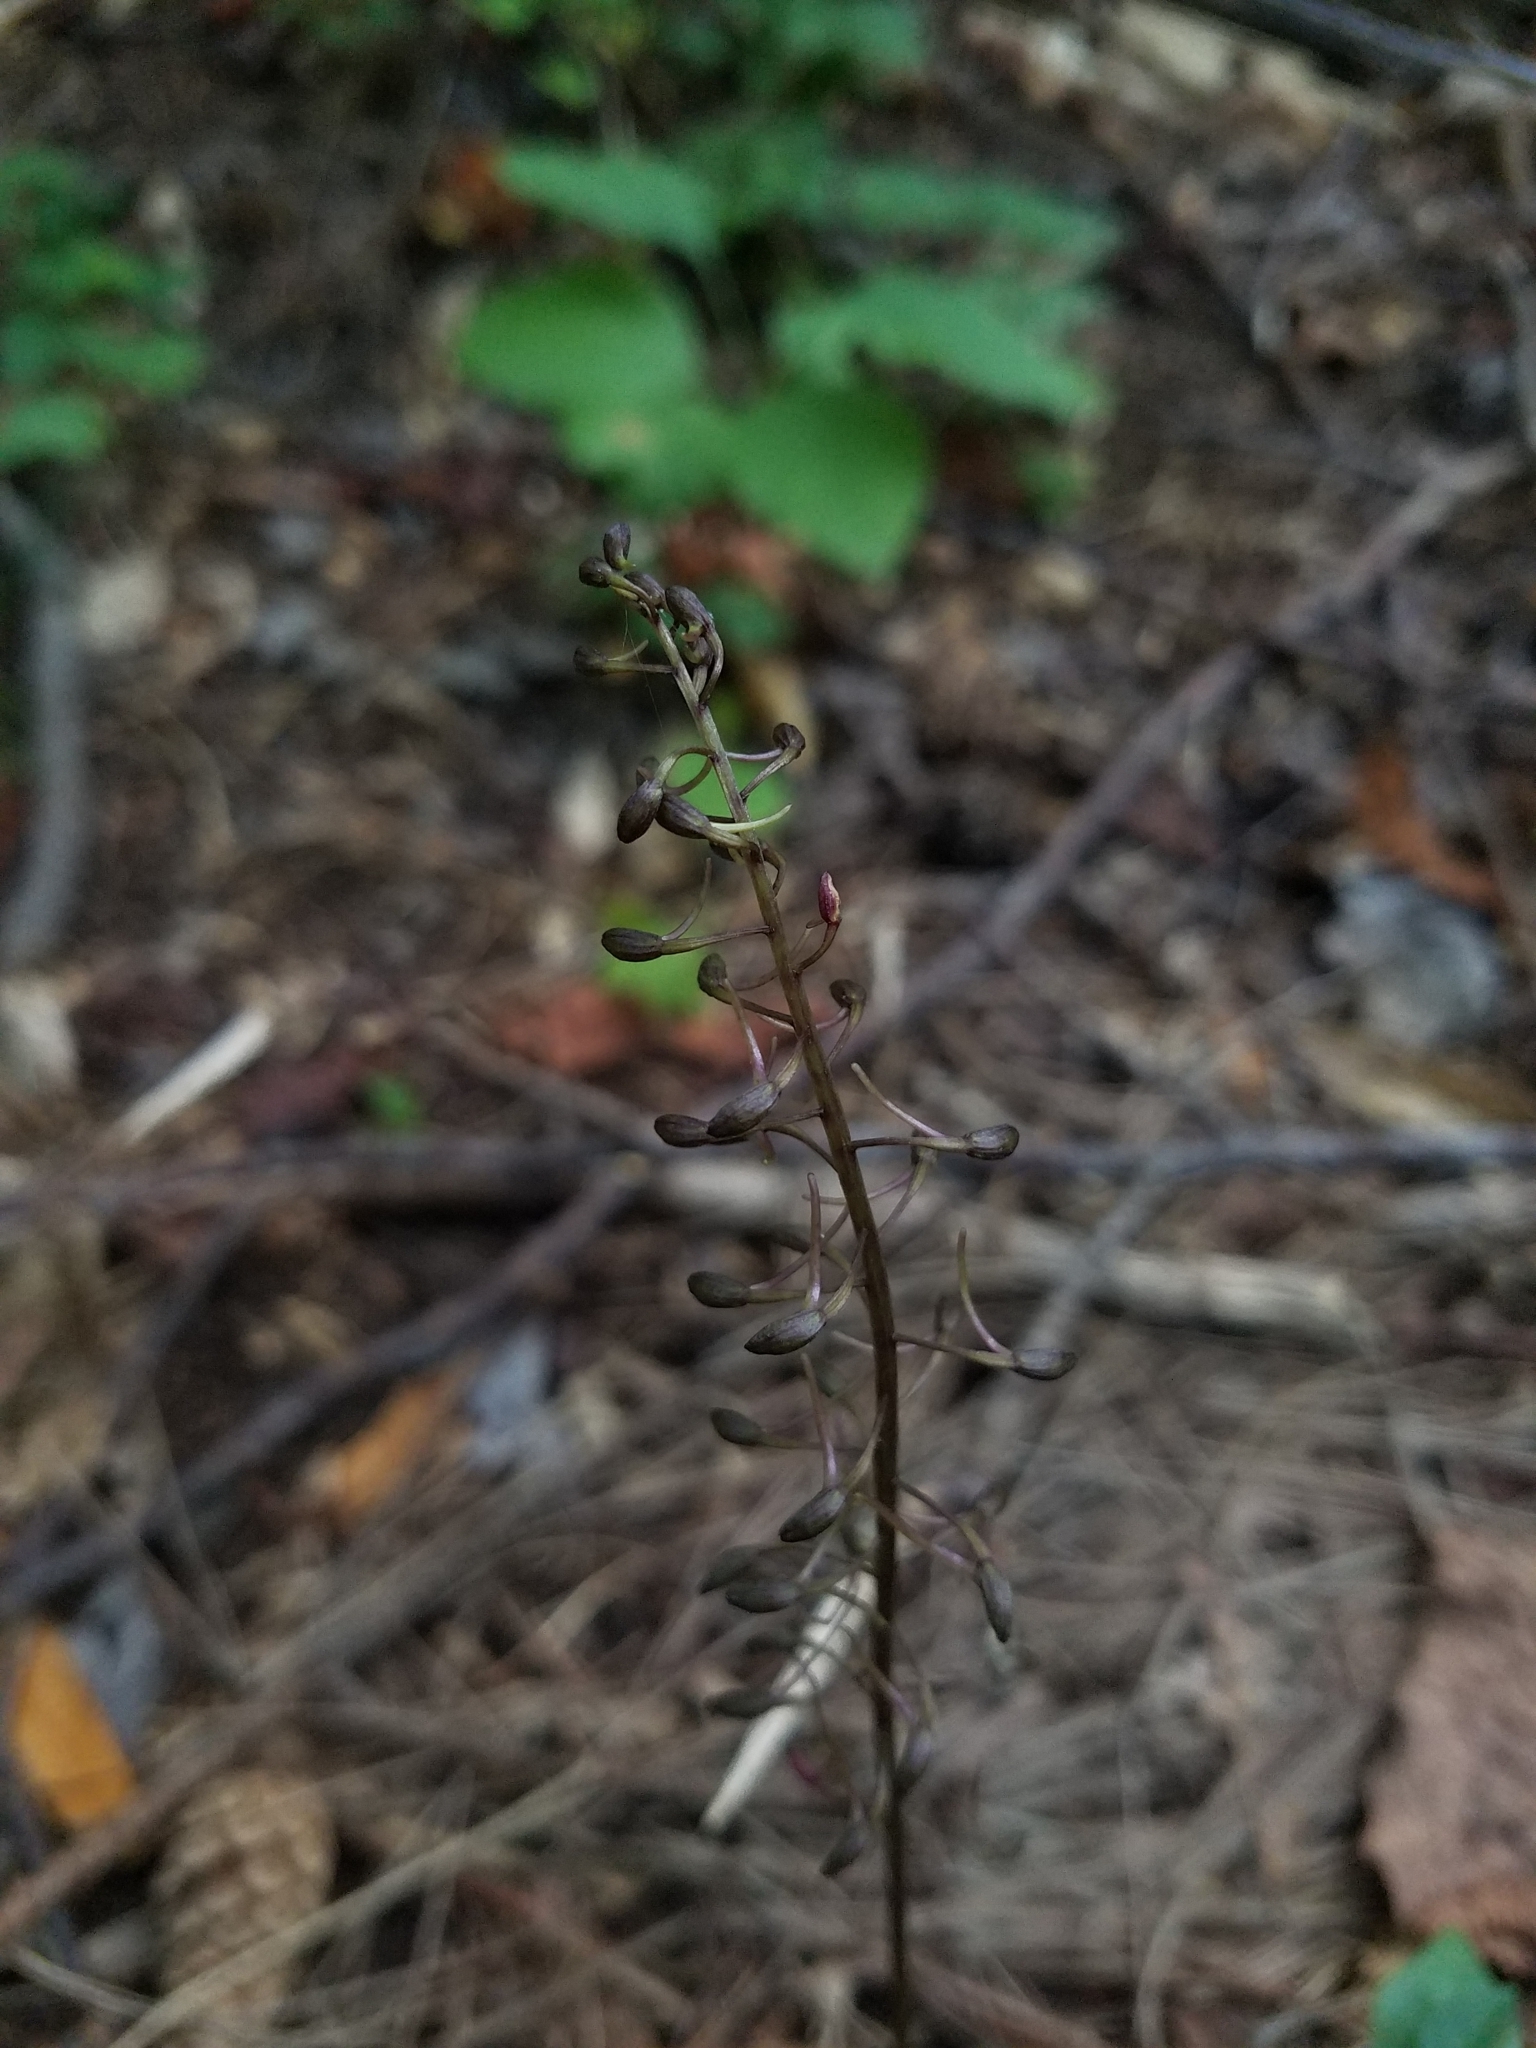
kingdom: Plantae
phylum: Tracheophyta
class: Liliopsida
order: Asparagales
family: Orchidaceae
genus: Tipularia
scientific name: Tipularia discolor
